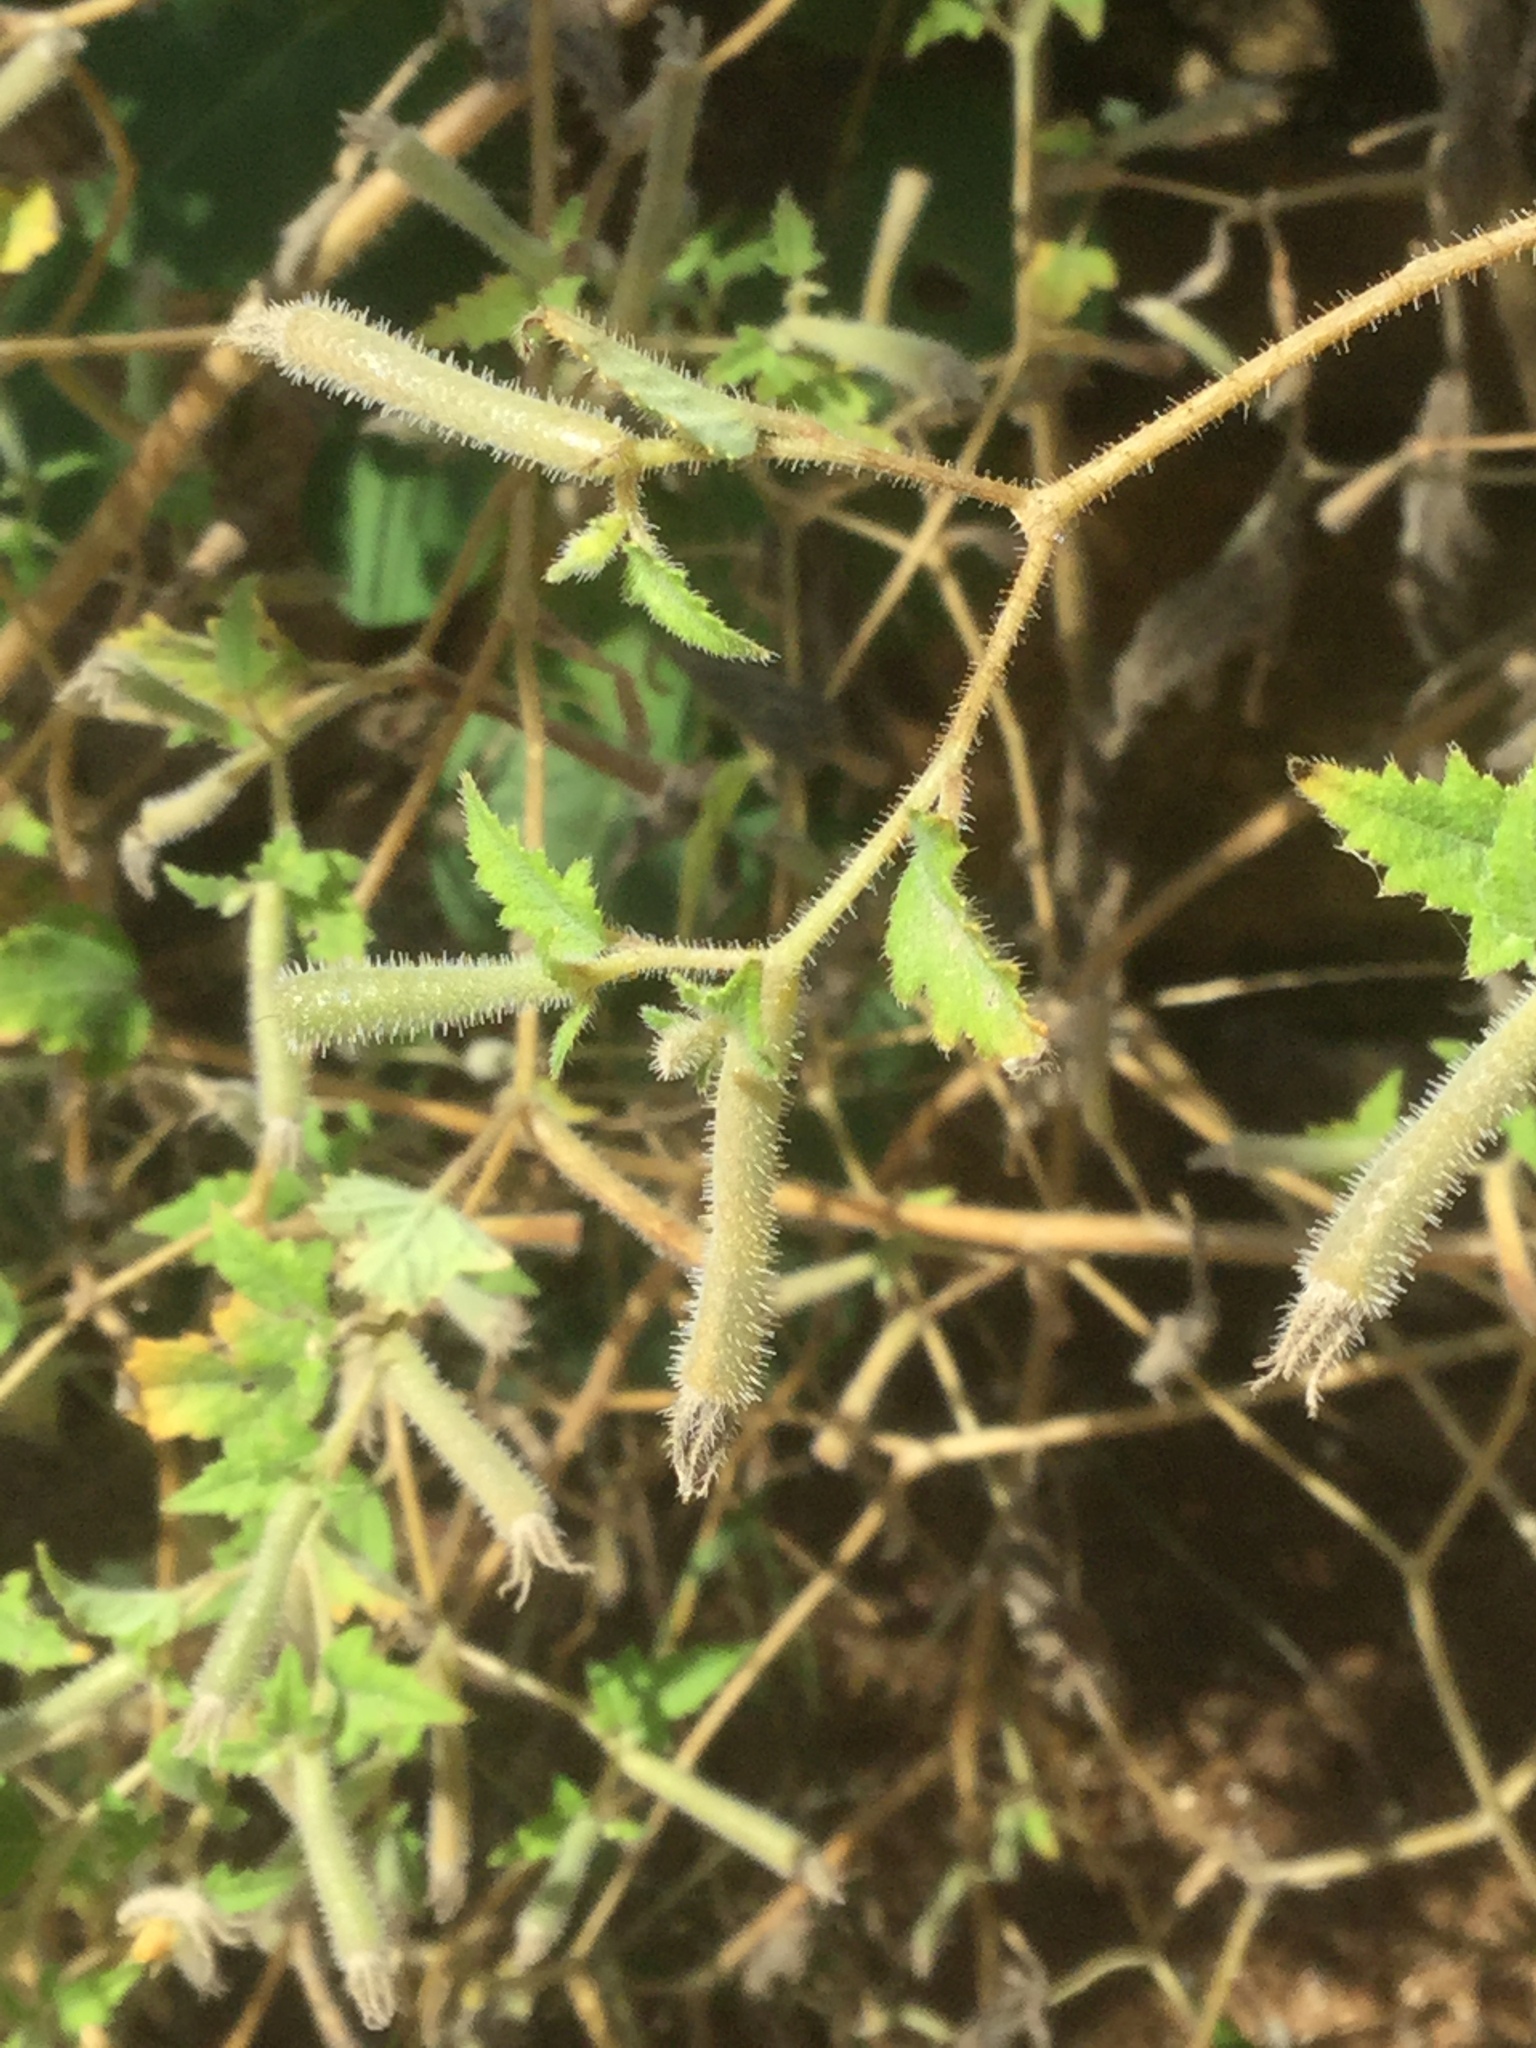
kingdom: Plantae
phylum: Tracheophyta
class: Magnoliopsida
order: Cornales
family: Loasaceae
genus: Mentzelia
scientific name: Mentzelia aspera
